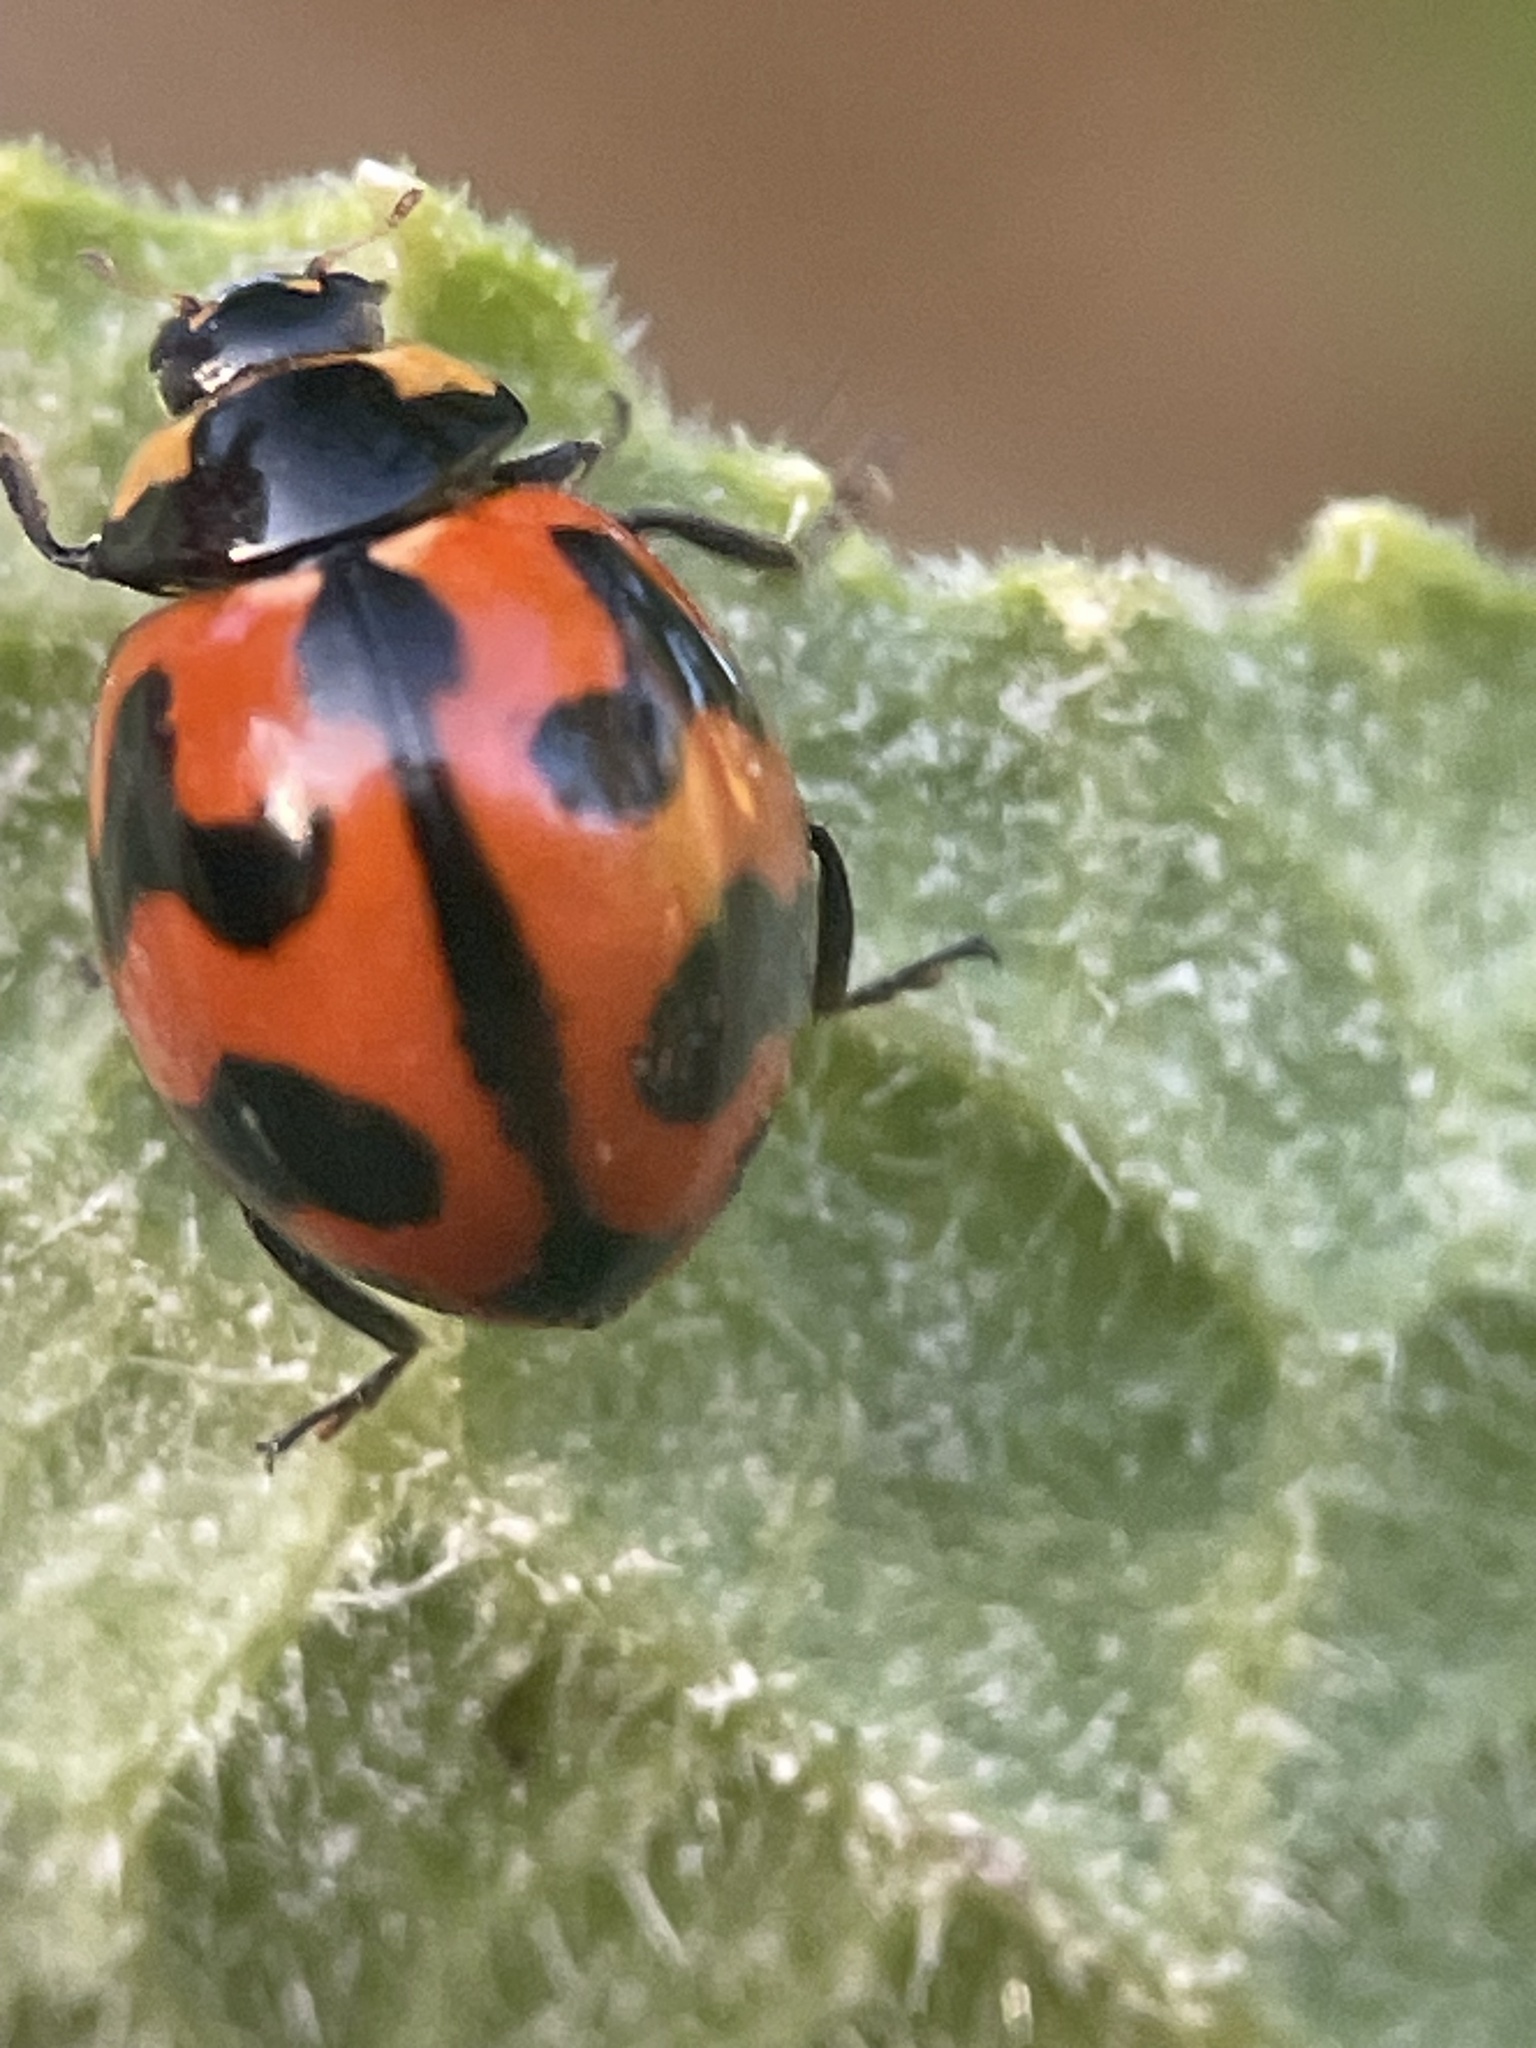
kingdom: Animalia
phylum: Arthropoda
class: Insecta
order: Coleoptera
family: Coccinellidae
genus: Coccinella
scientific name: Coccinella transversalis
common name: Transverse lady beetle
